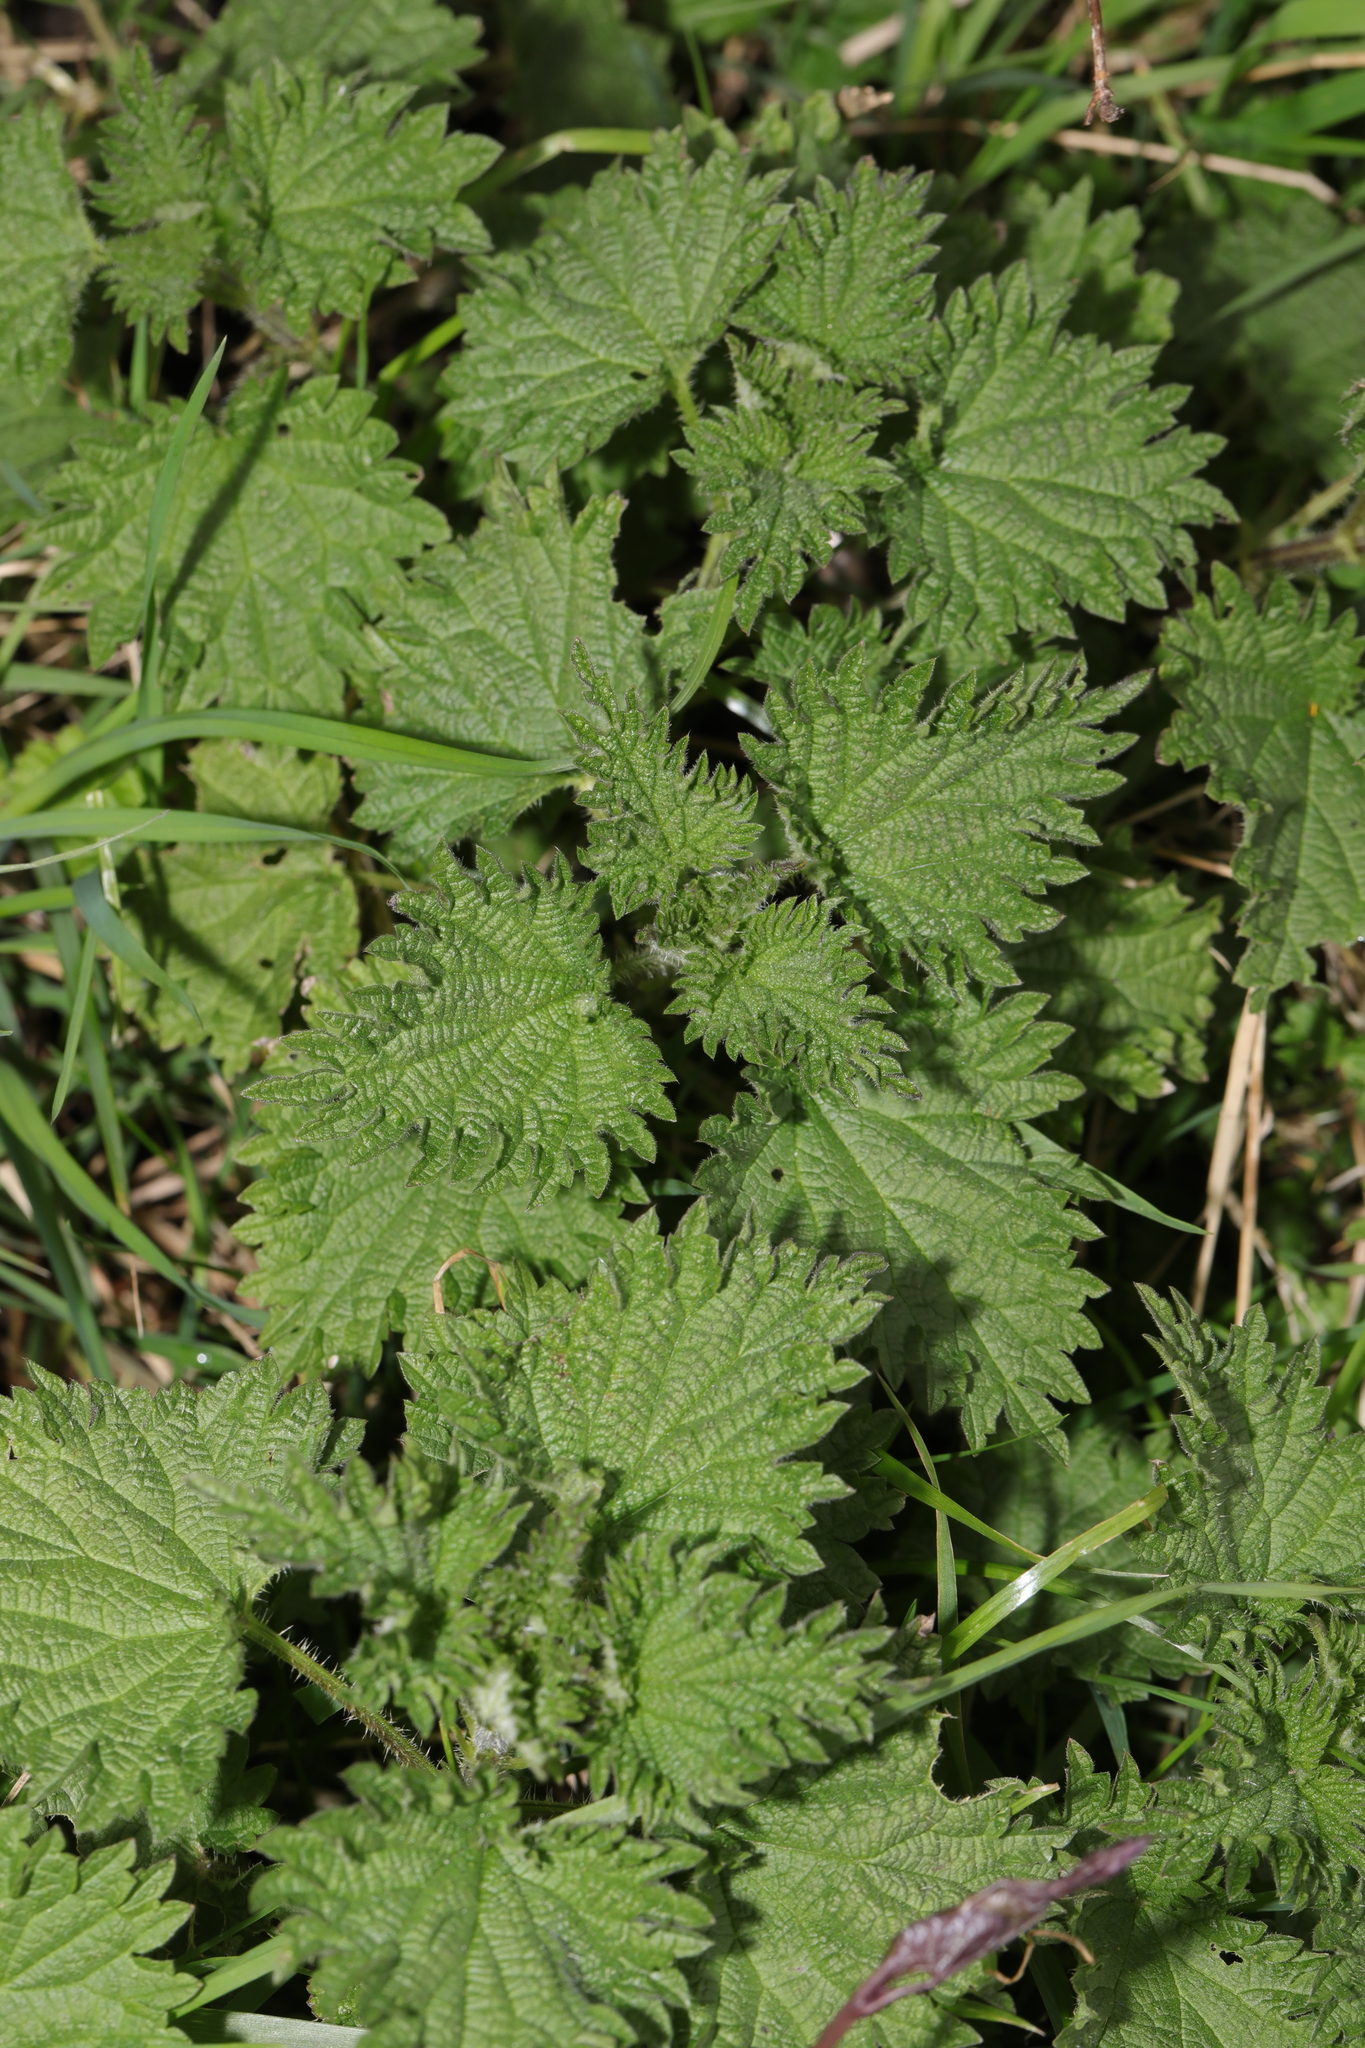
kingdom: Plantae
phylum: Tracheophyta
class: Magnoliopsida
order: Rosales
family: Urticaceae
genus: Urtica
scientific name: Urtica dioica
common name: Common nettle
